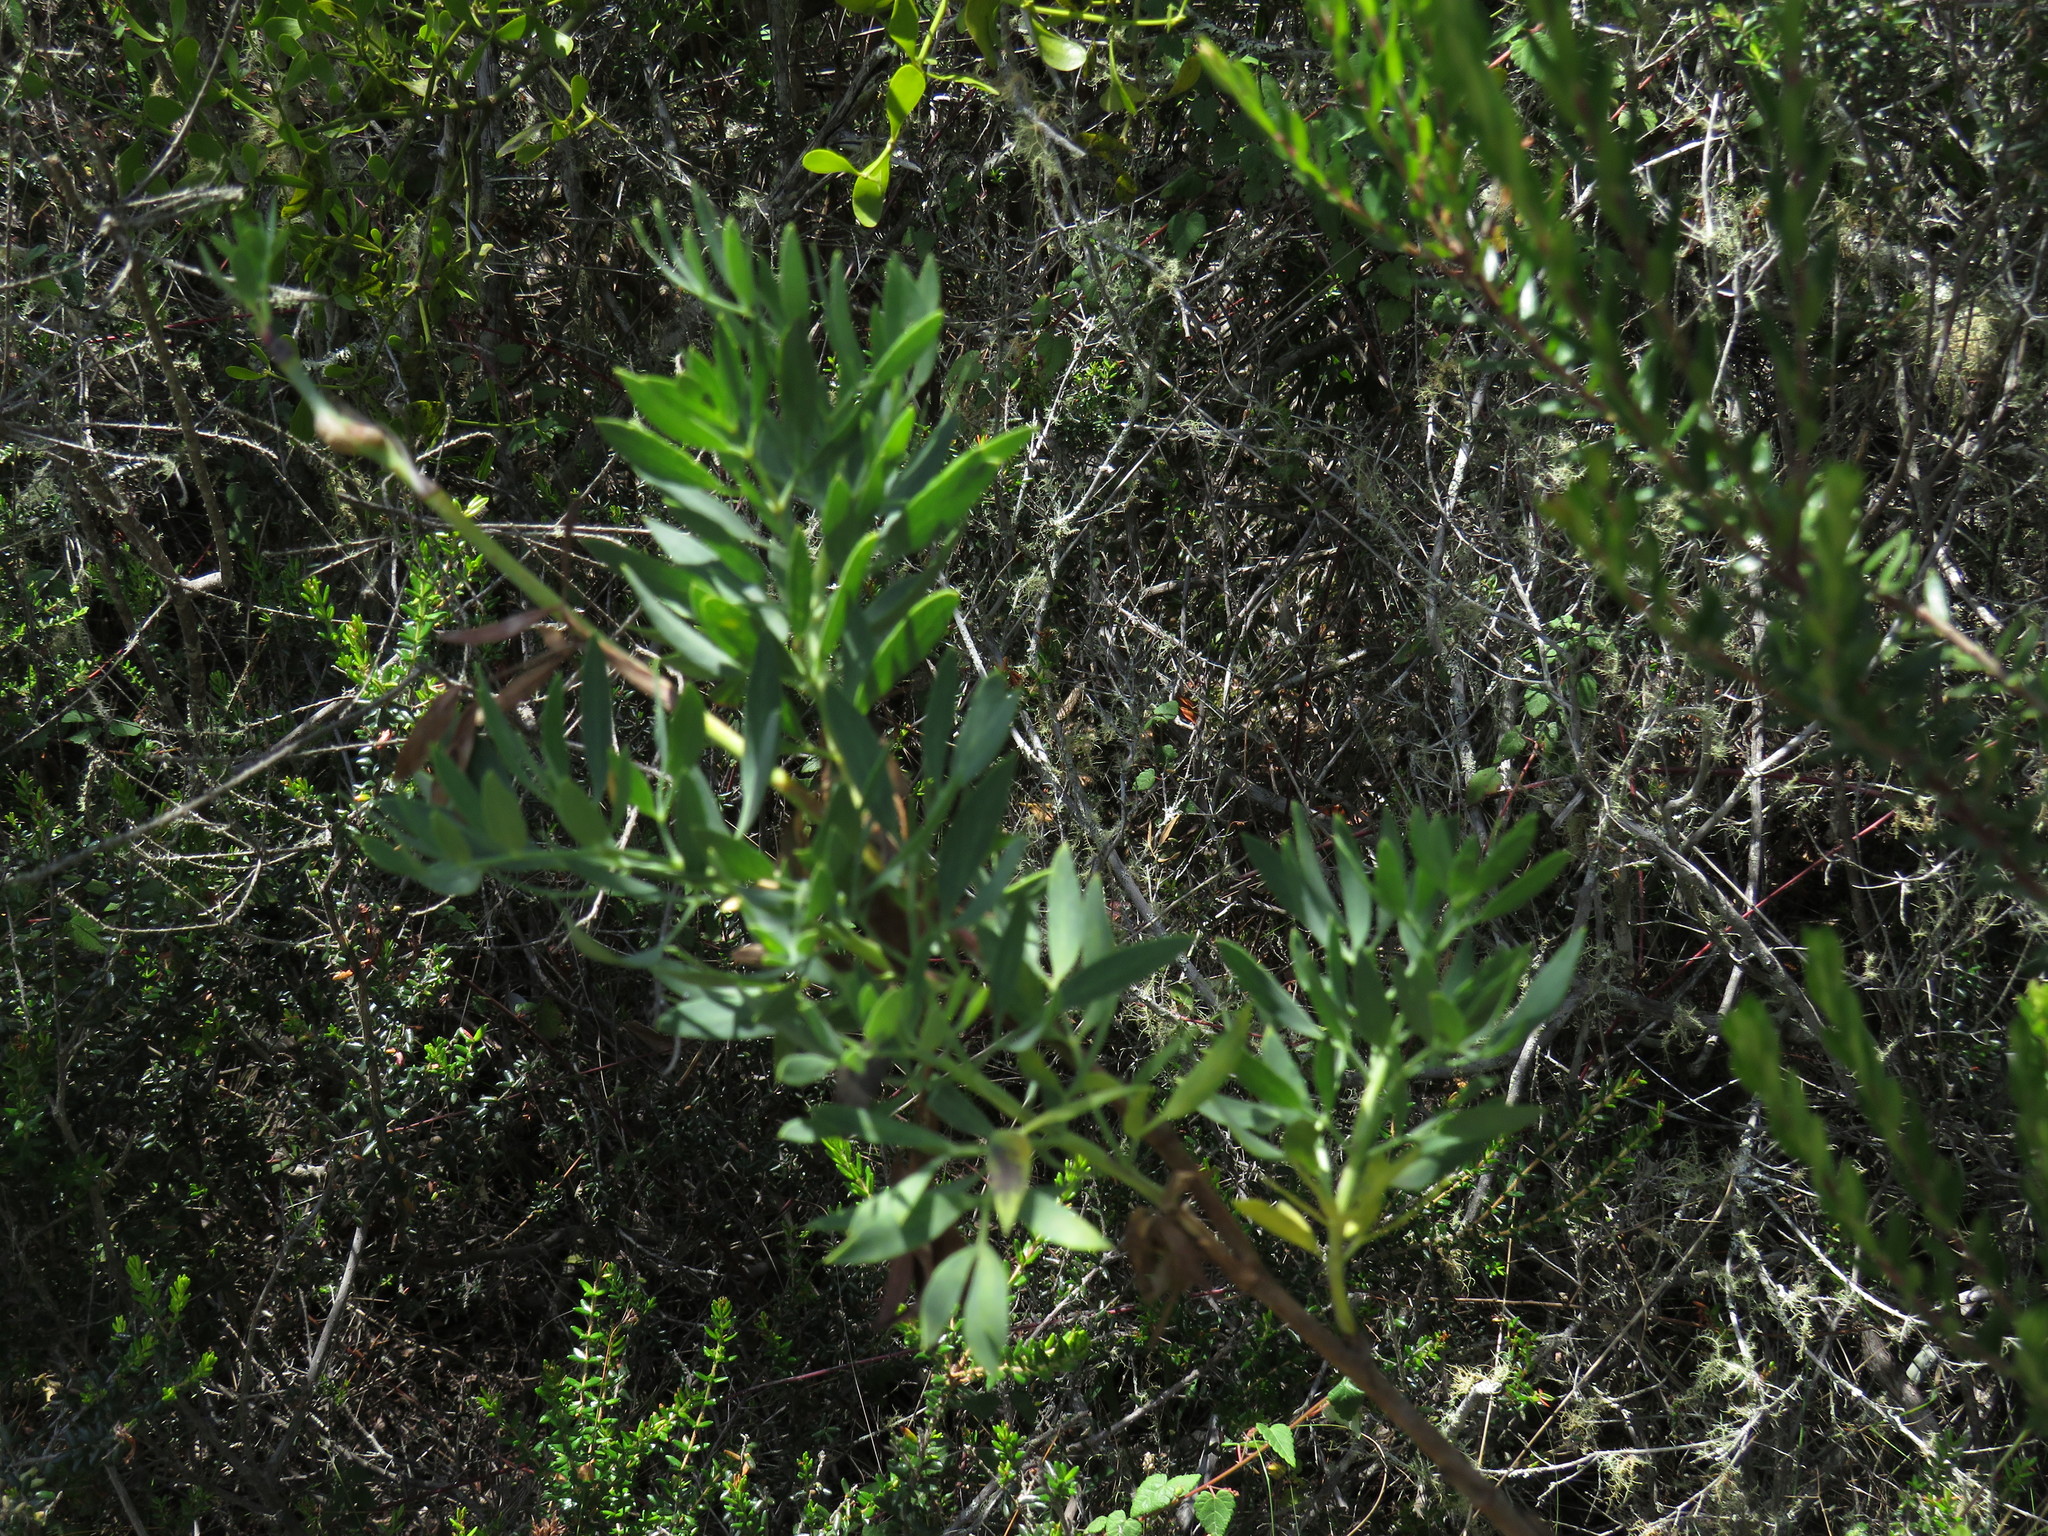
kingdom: Plantae
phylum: Tracheophyta
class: Magnoliopsida
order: Apiales
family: Apiaceae
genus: Notobubon
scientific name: Notobubon laevigatum
